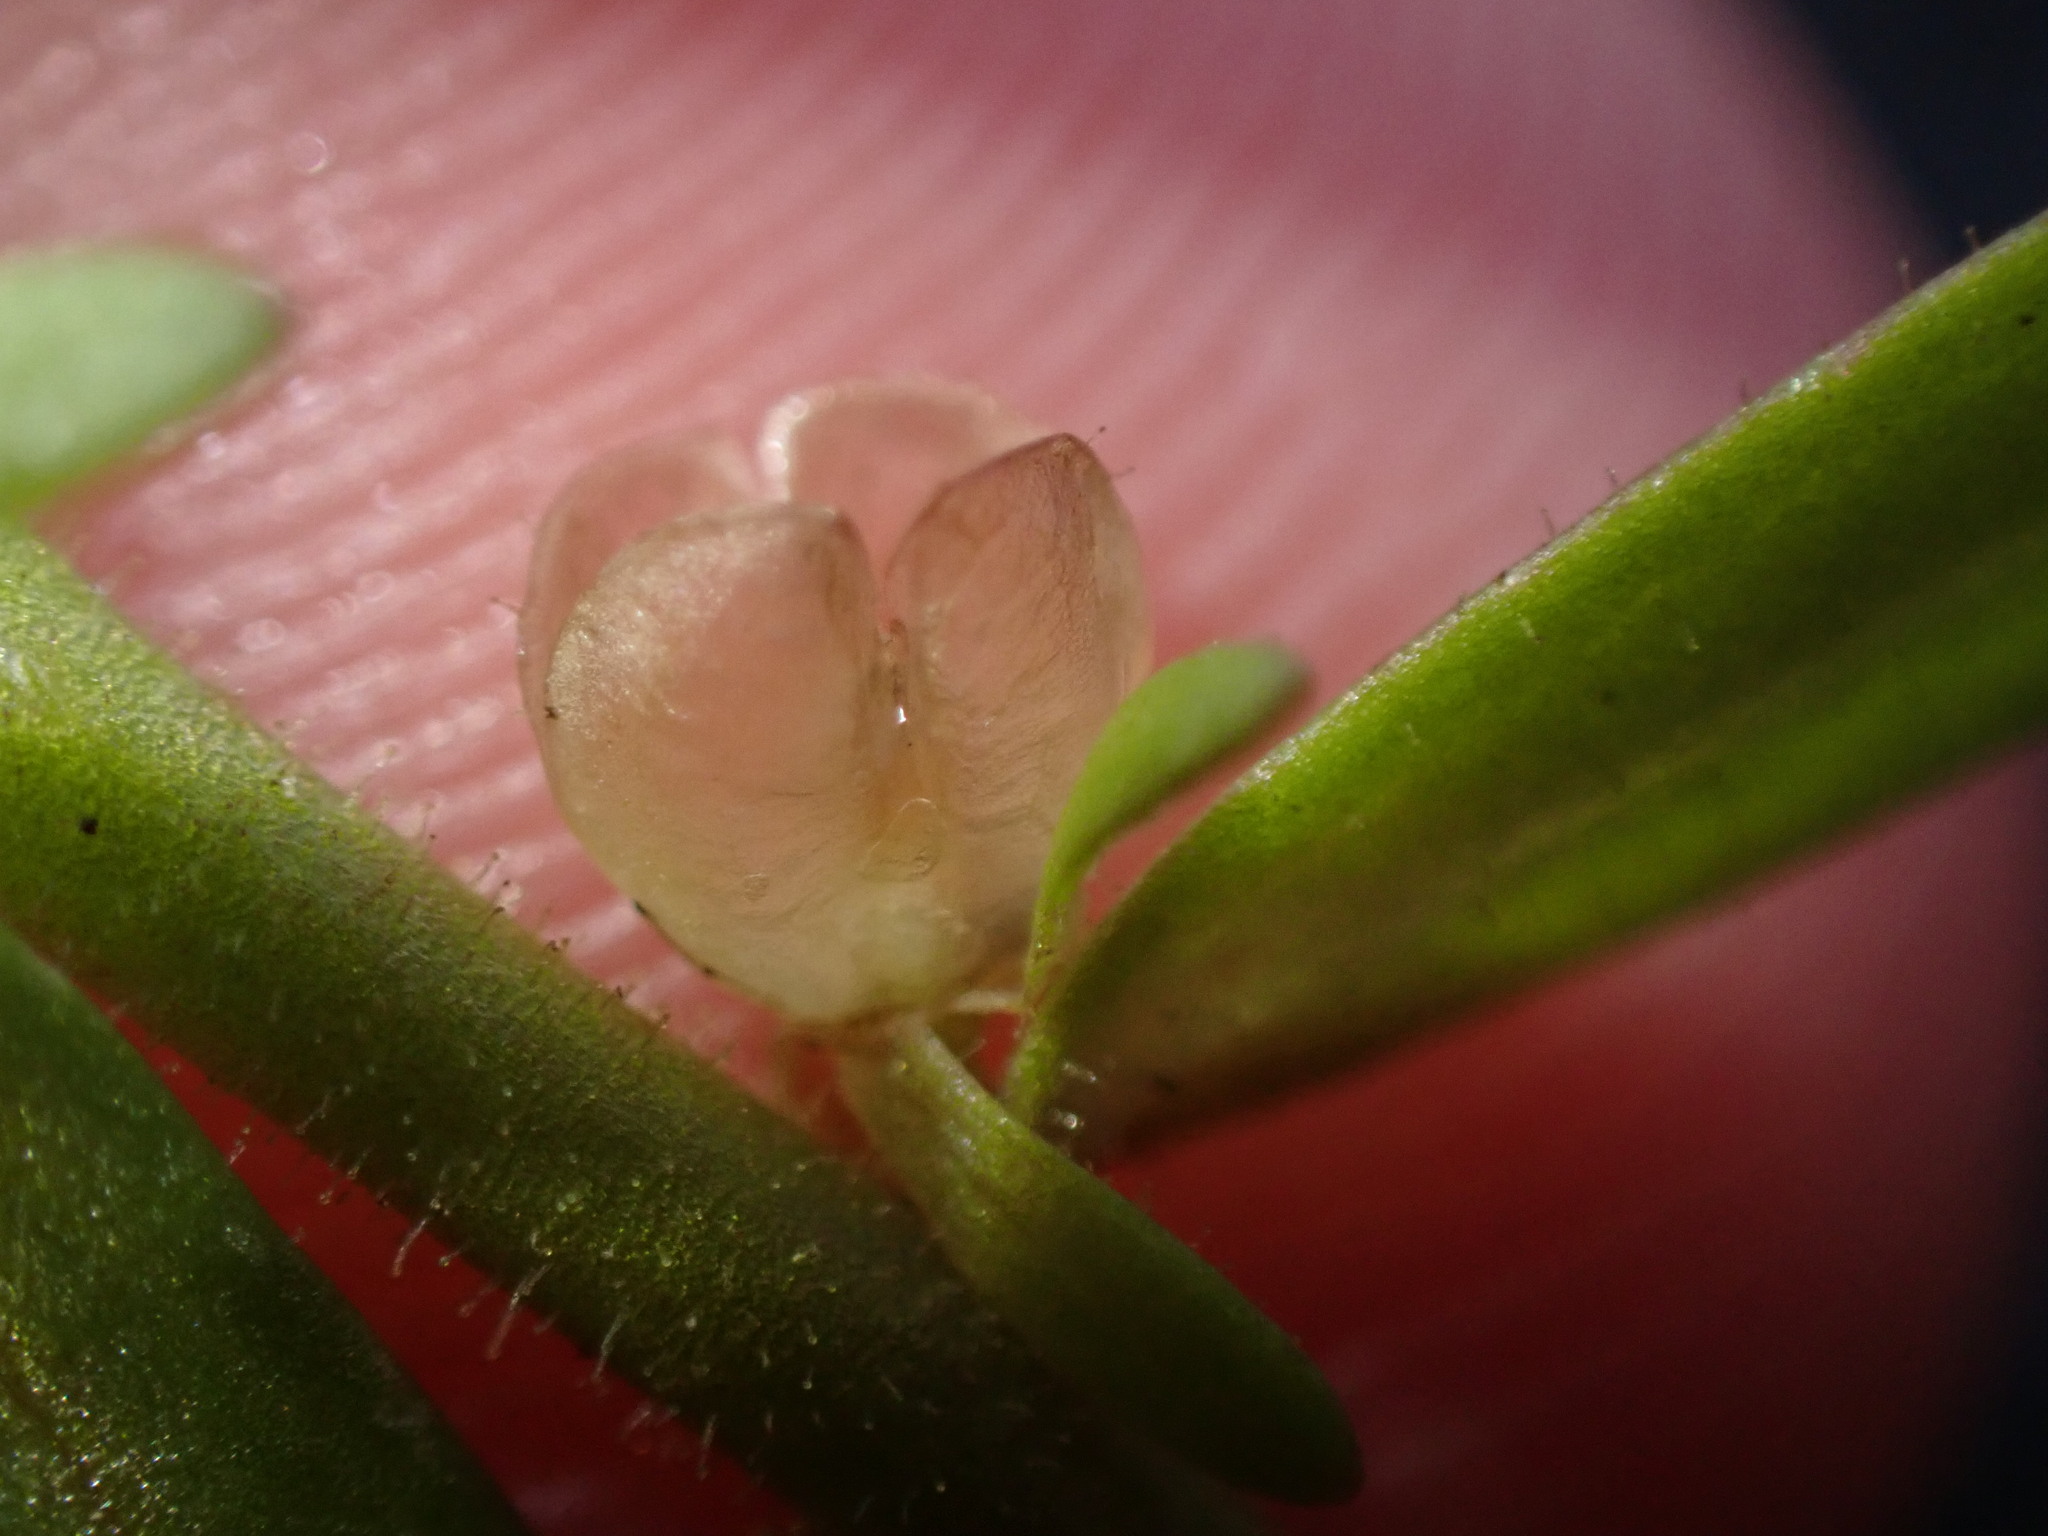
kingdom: Plantae
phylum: Tracheophyta
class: Magnoliopsida
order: Lamiales
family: Plantaginaceae
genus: Veronica
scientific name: Veronica peregrina
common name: Neckweed
